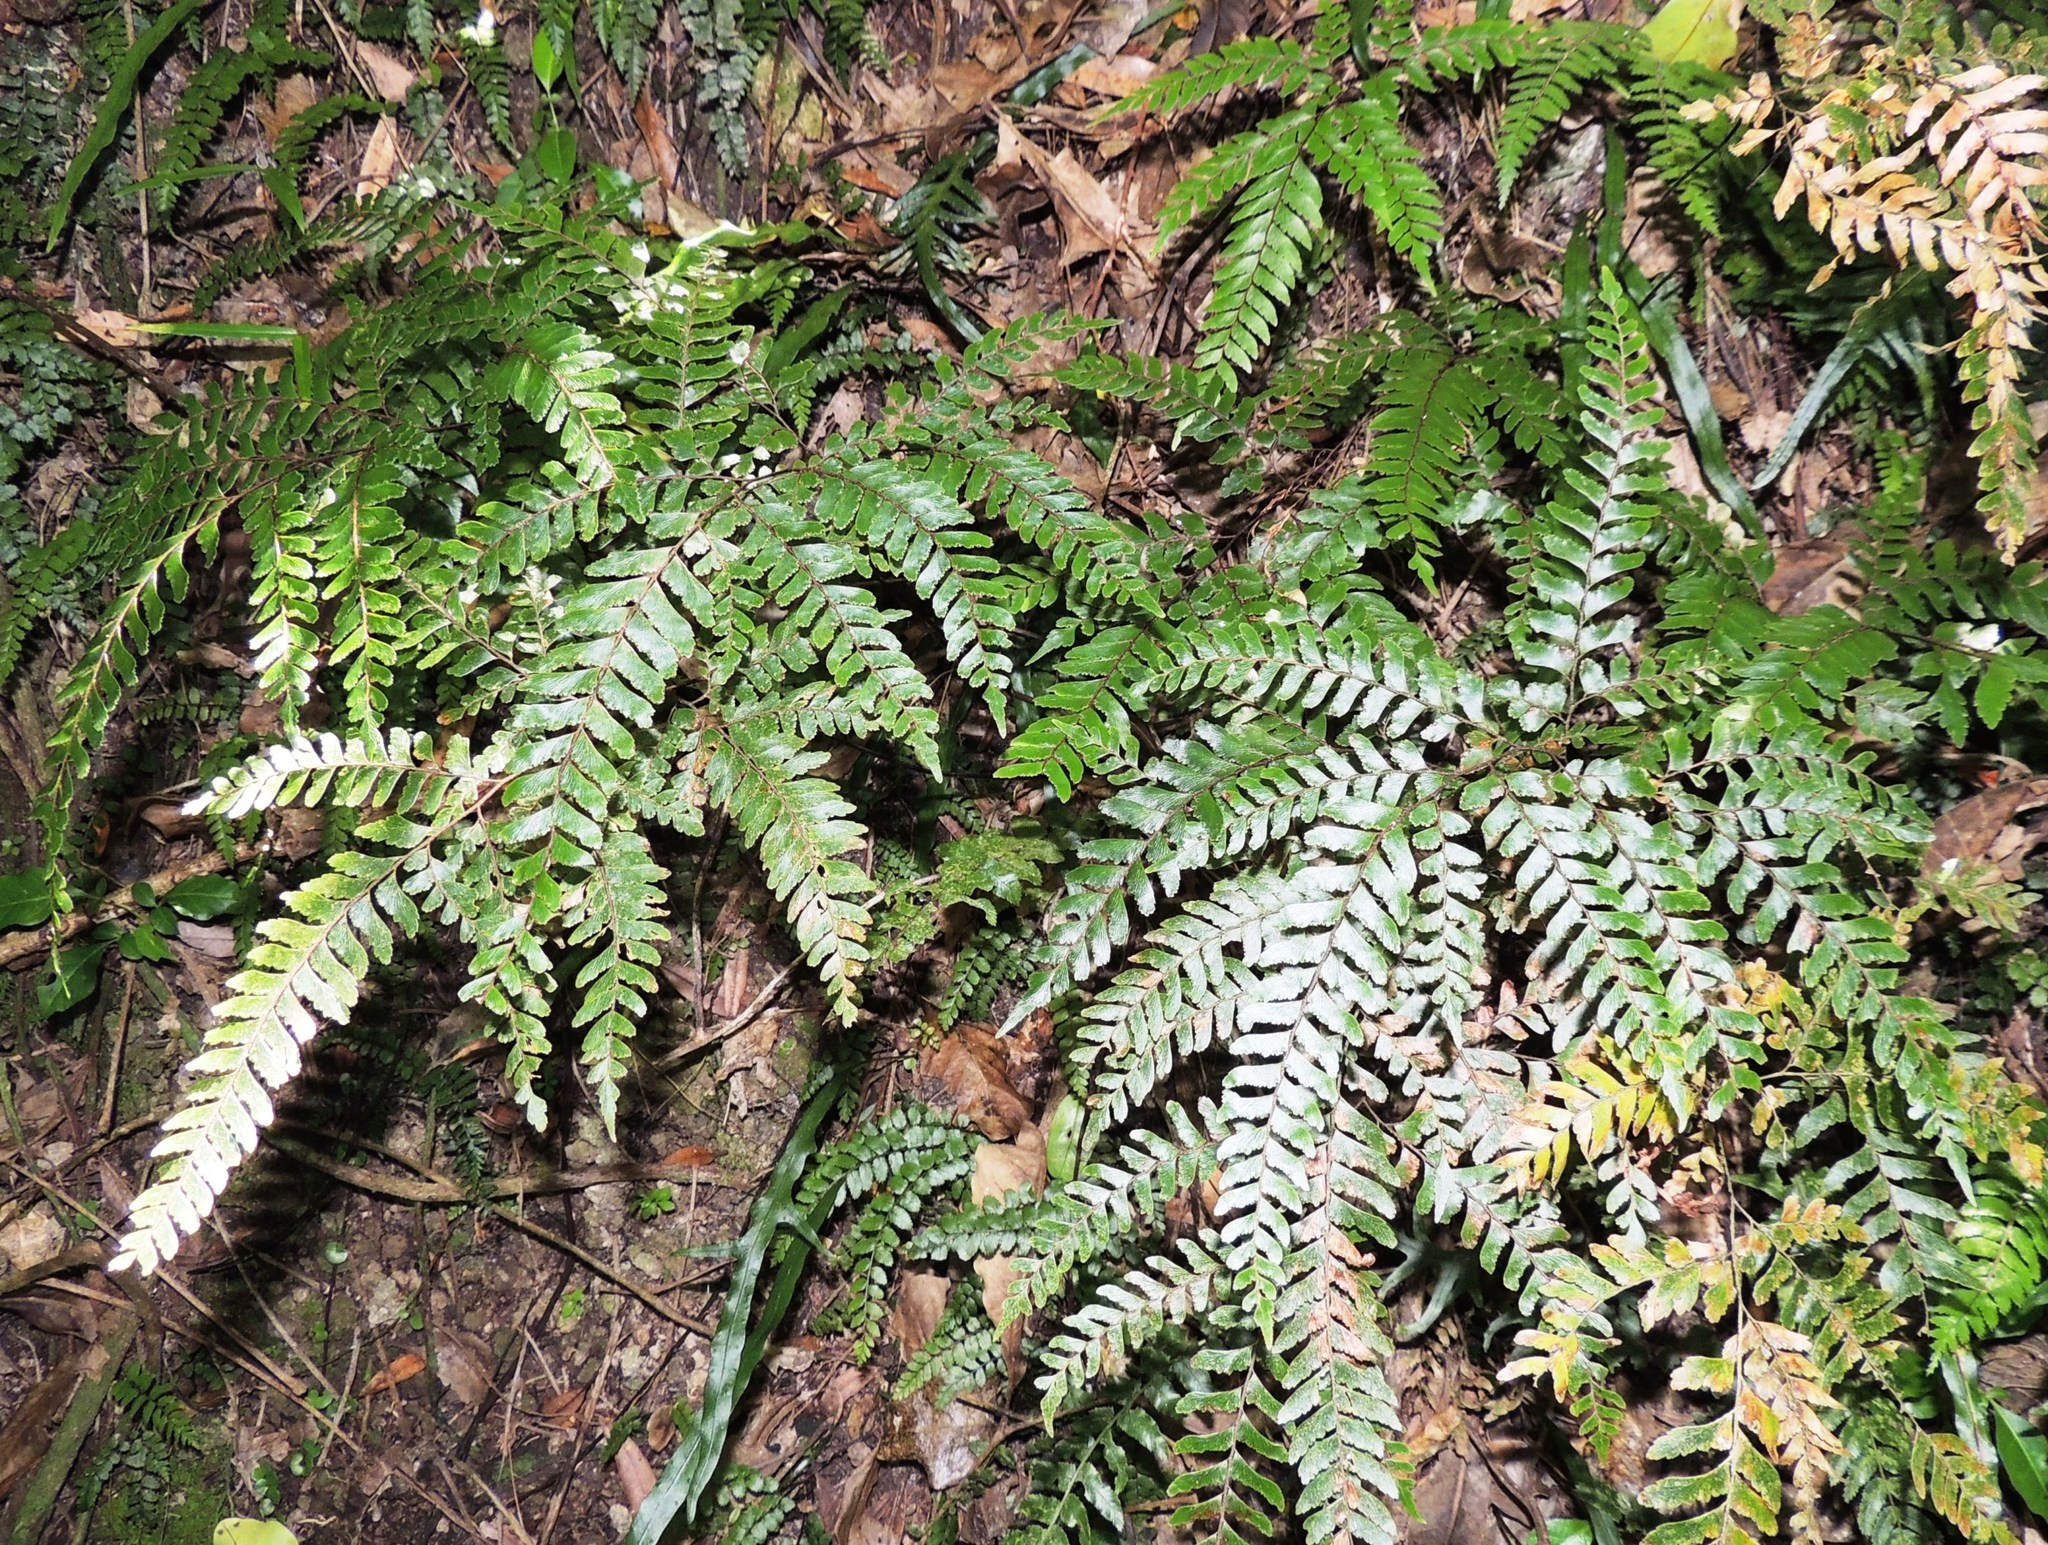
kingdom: Plantae
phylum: Tracheophyta
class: Polypodiopsida
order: Polypodiales
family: Pteridaceae
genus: Adiantum
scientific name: Adiantum fulvum
